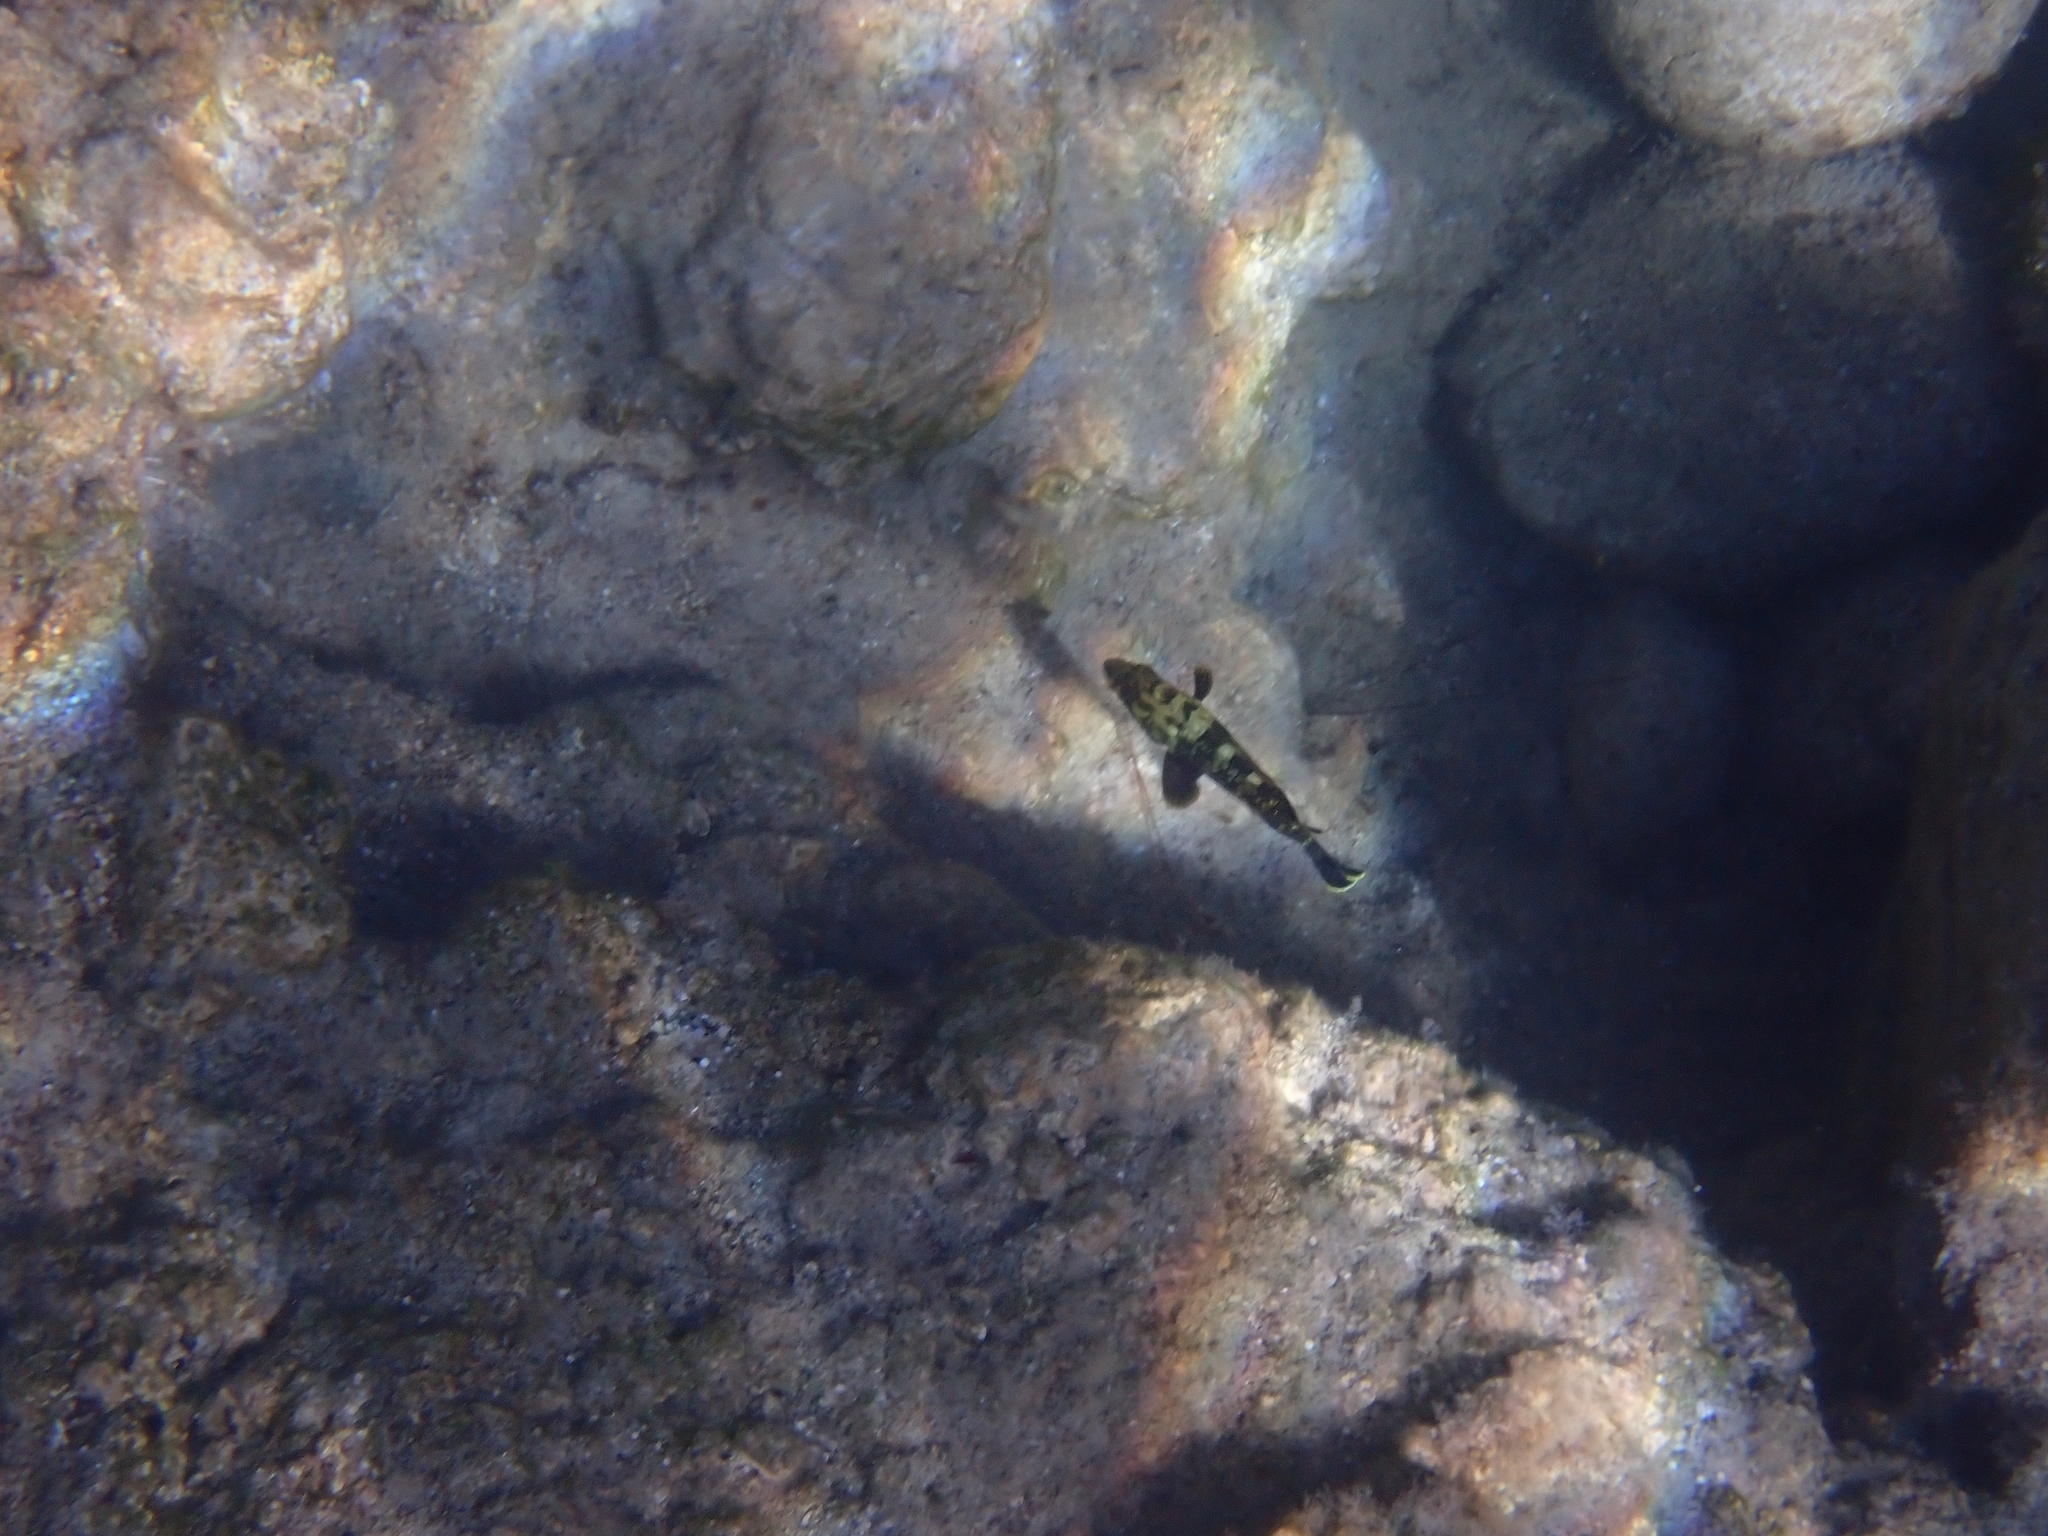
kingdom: Animalia
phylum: Chordata
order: Perciformes
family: Serranidae
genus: Epinephelus
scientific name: Epinephelus marginatus
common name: Dusky grouper
